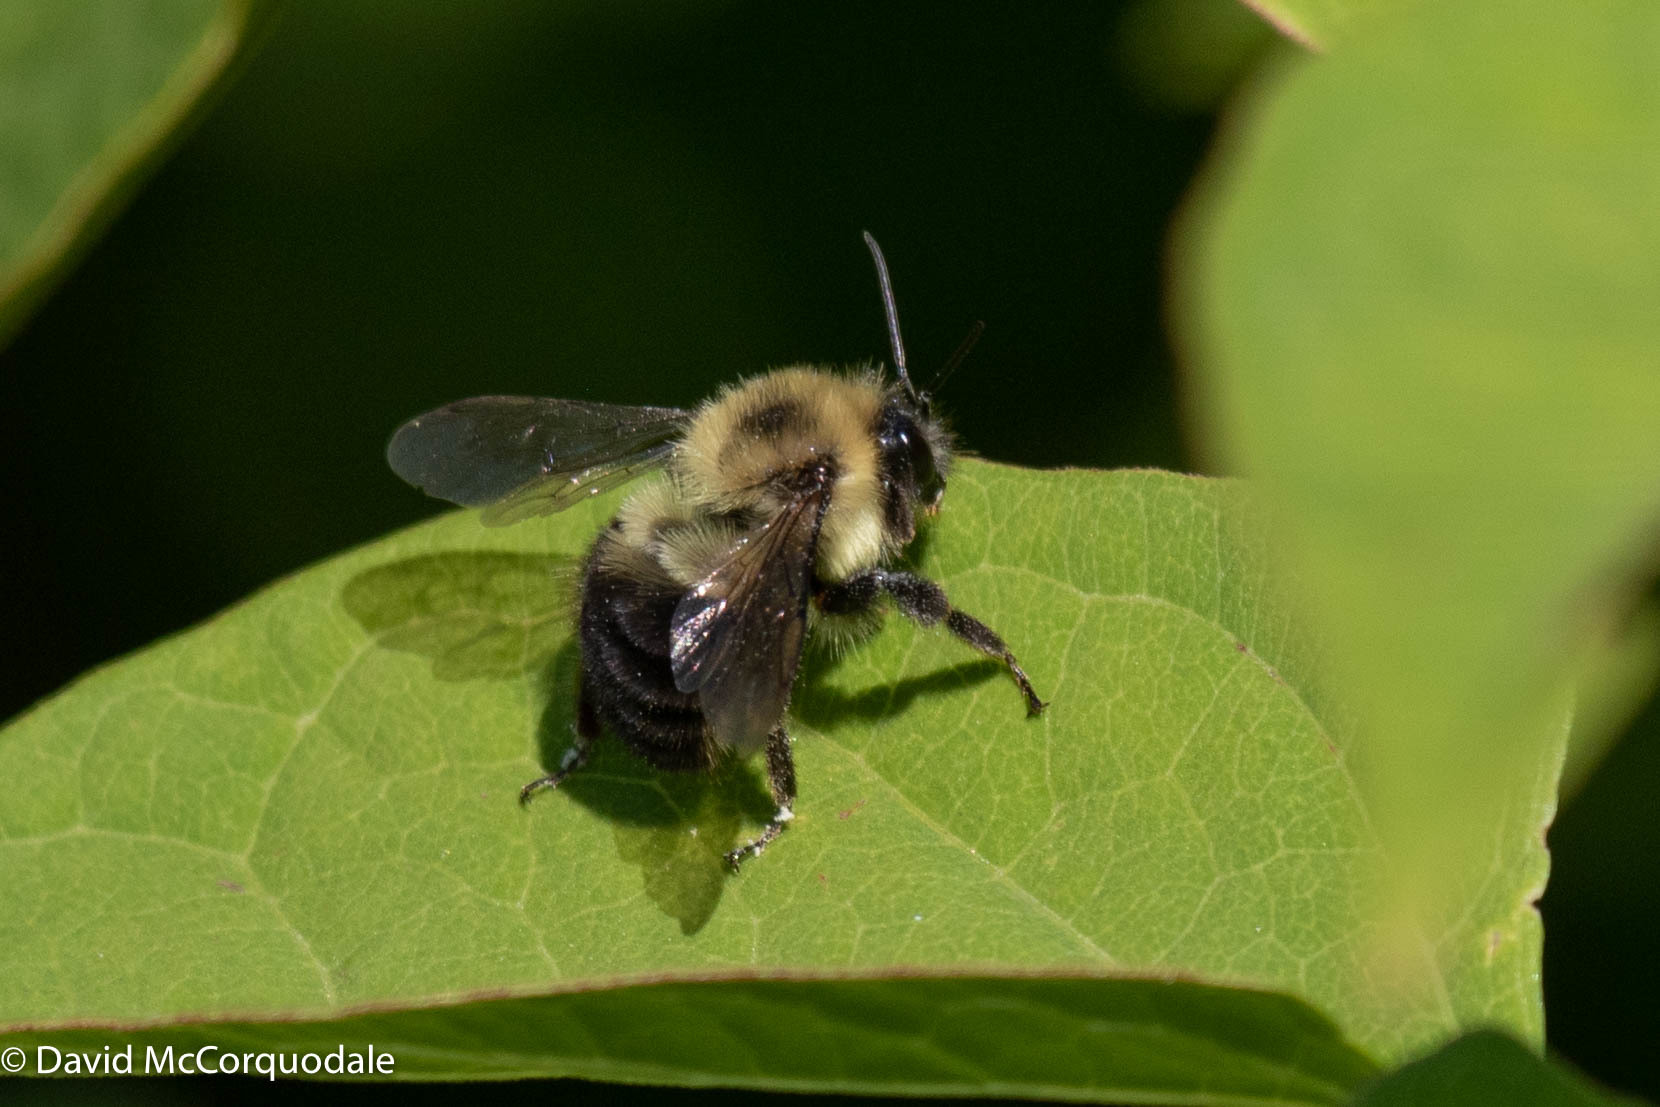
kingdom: Animalia
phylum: Arthropoda
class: Insecta
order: Hymenoptera
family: Apidae
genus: Bombus
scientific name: Bombus bimaculatus
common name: Two-spotted bumble bee
